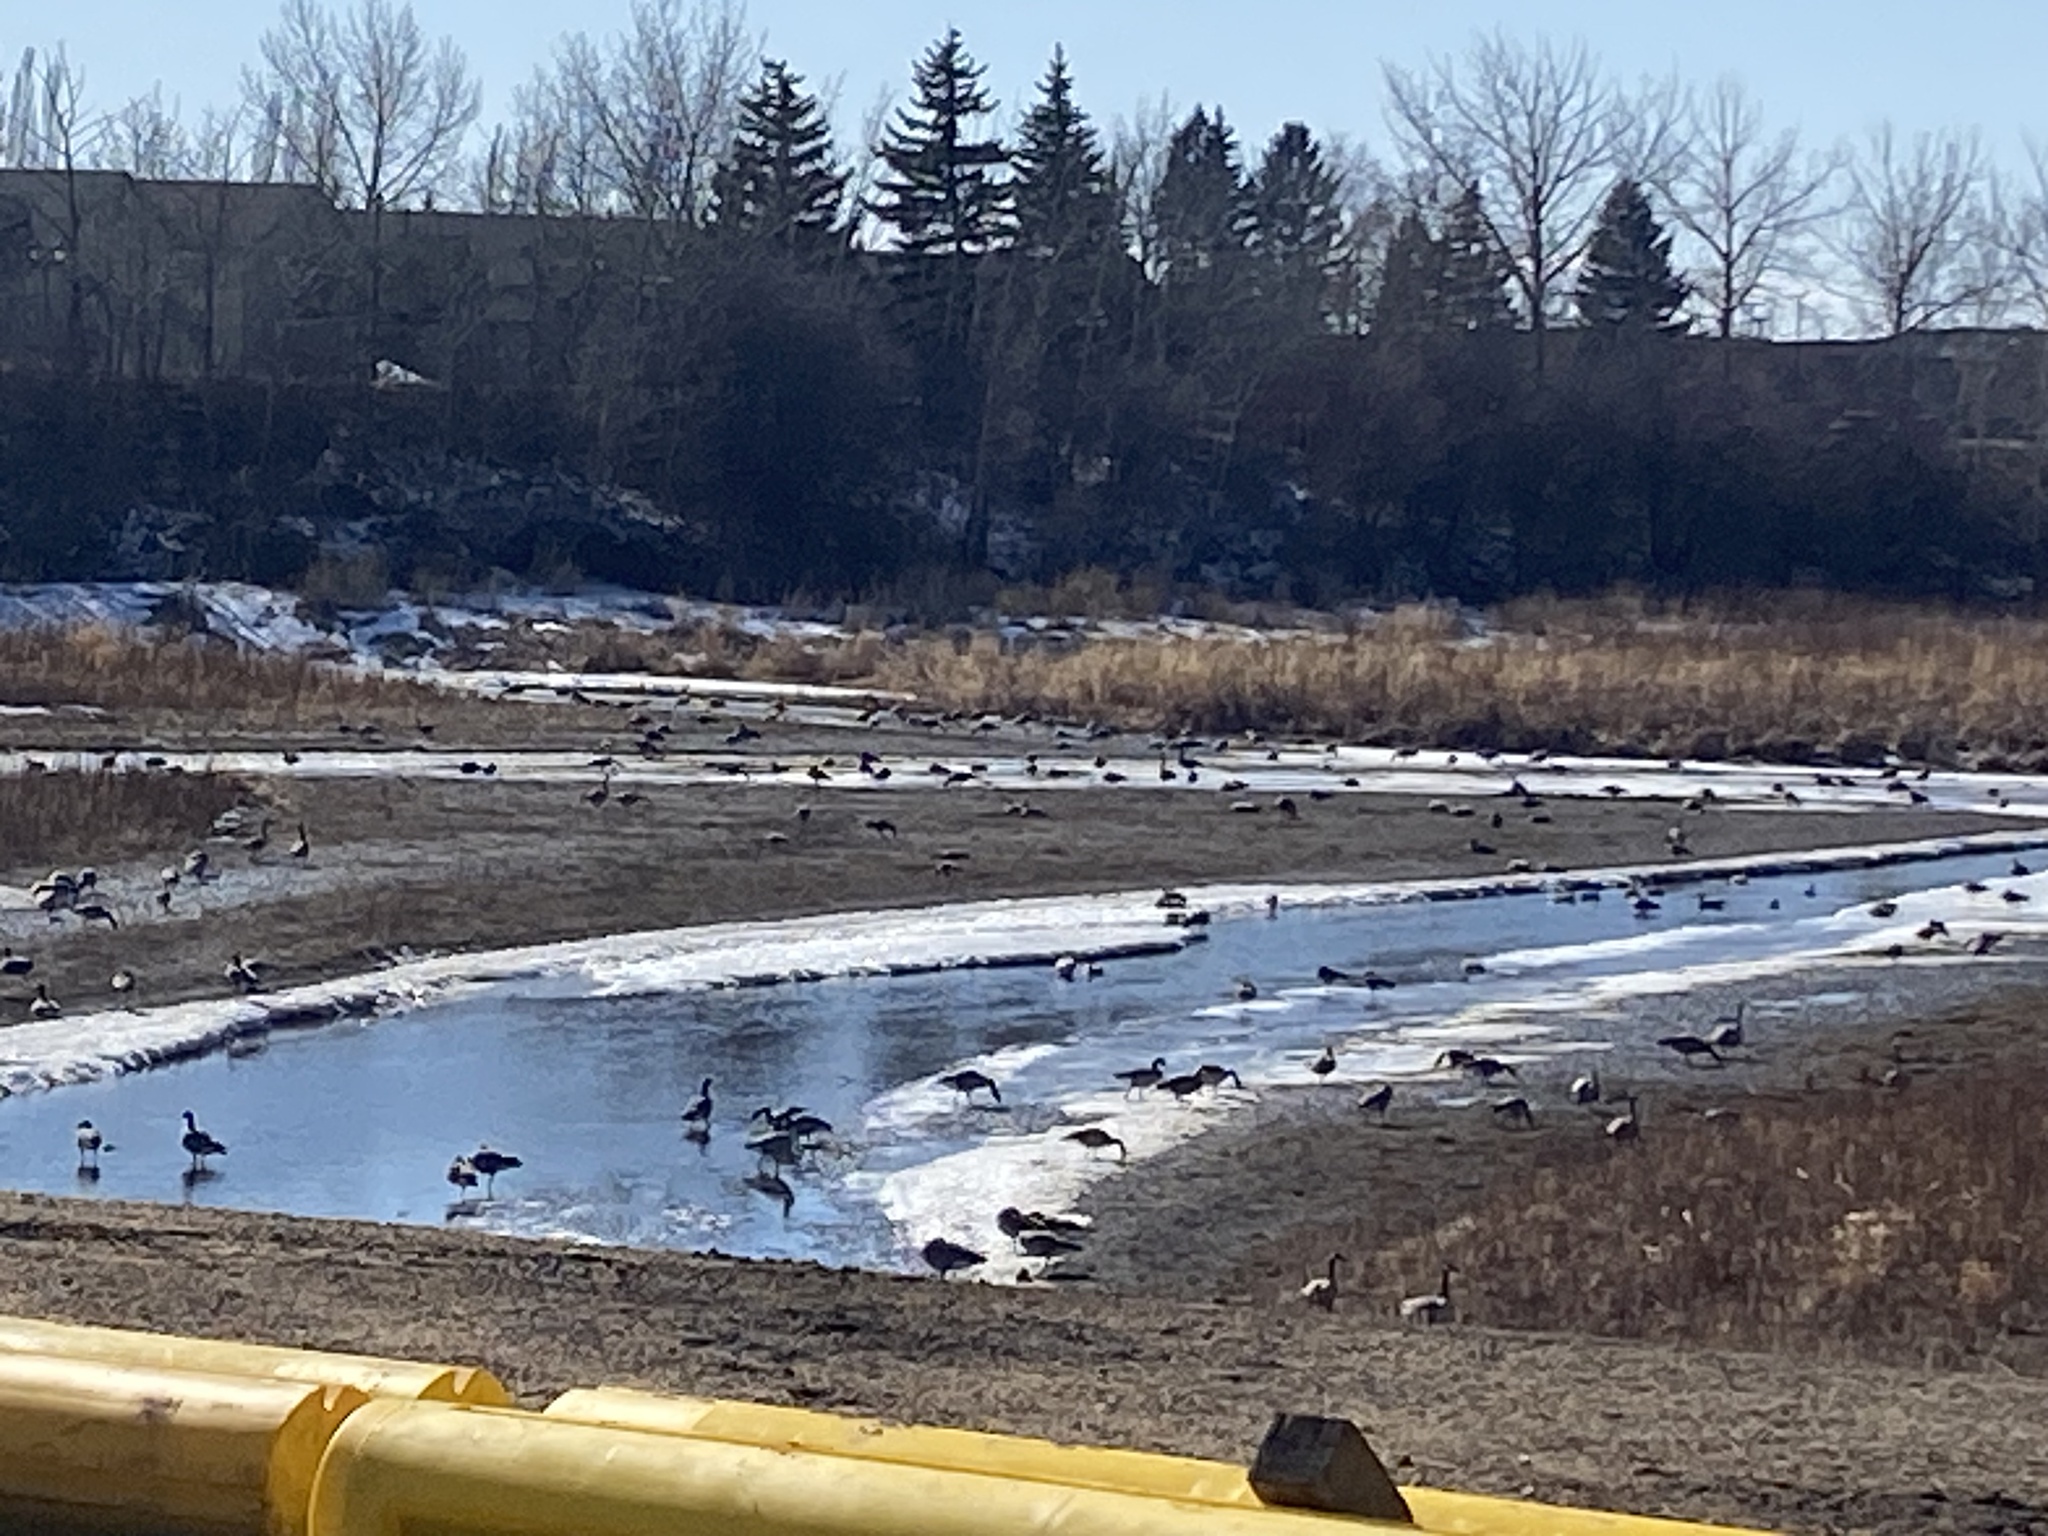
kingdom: Animalia
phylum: Chordata
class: Aves
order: Anseriformes
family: Anatidae
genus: Branta
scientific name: Branta canadensis
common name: Canada goose
